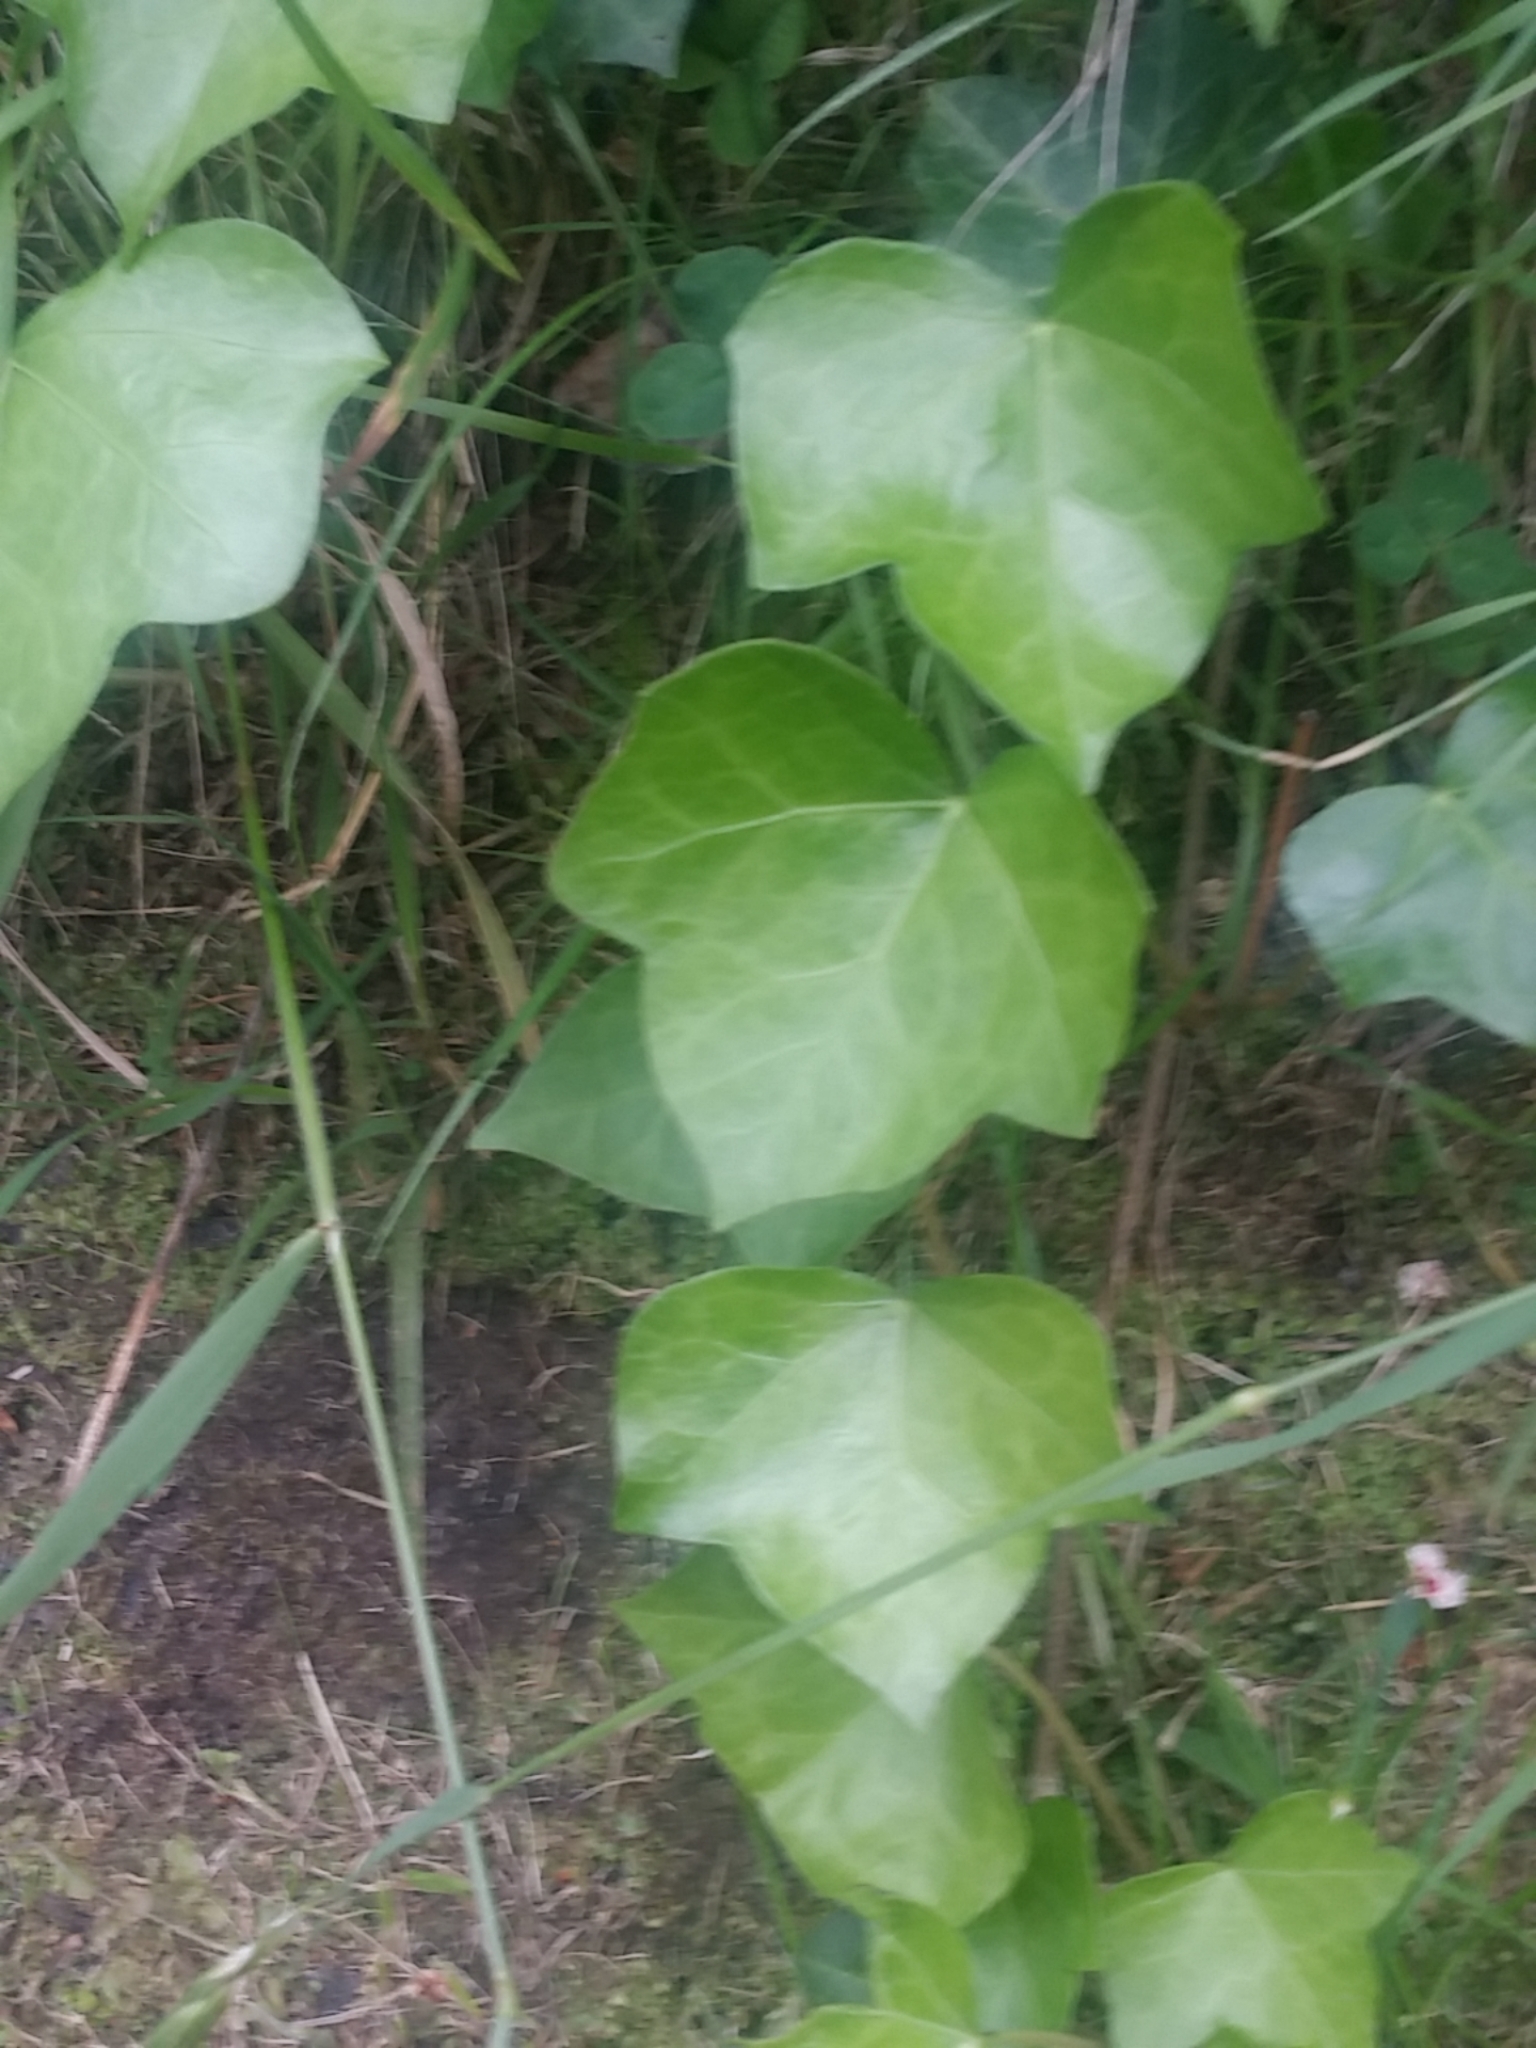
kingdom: Plantae
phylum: Tracheophyta
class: Magnoliopsida
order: Apiales
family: Araliaceae
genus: Hedera
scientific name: Hedera helix
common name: Ivy
